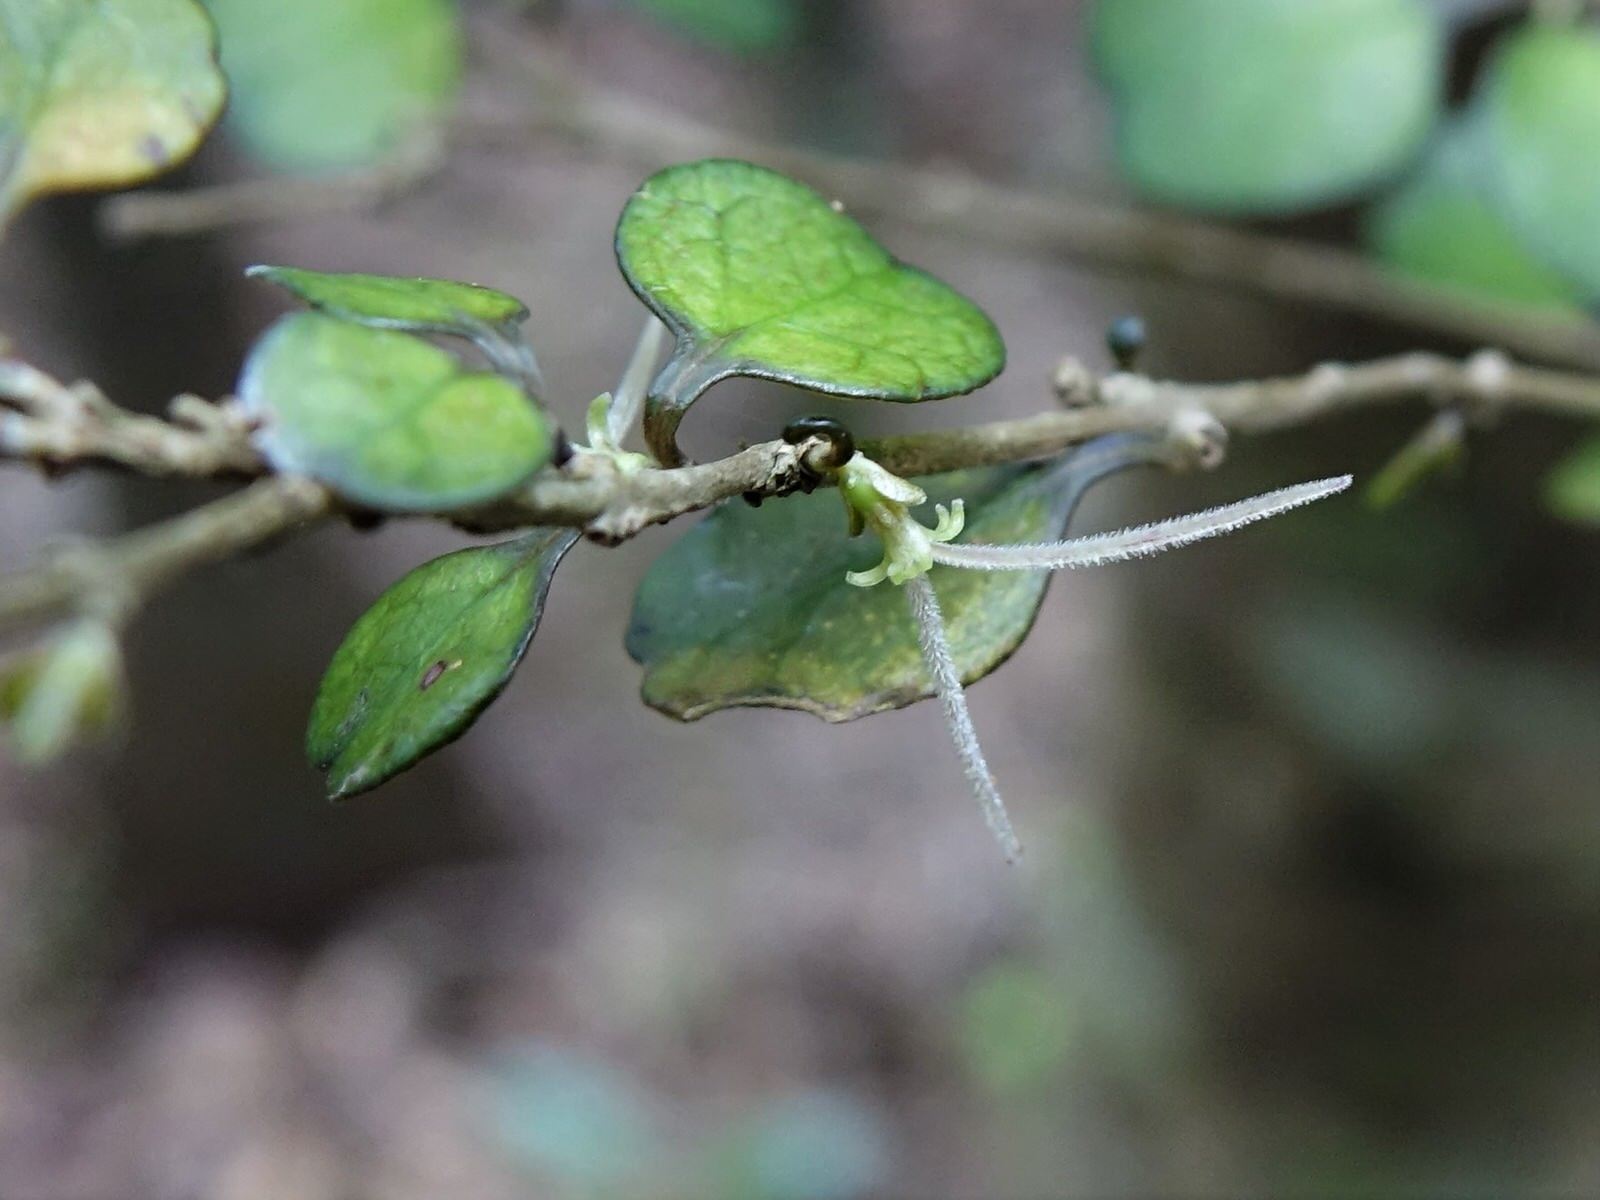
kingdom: Plantae
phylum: Tracheophyta
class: Magnoliopsida
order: Gentianales
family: Rubiaceae
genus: Coprosma
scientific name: Coprosma spathulata
